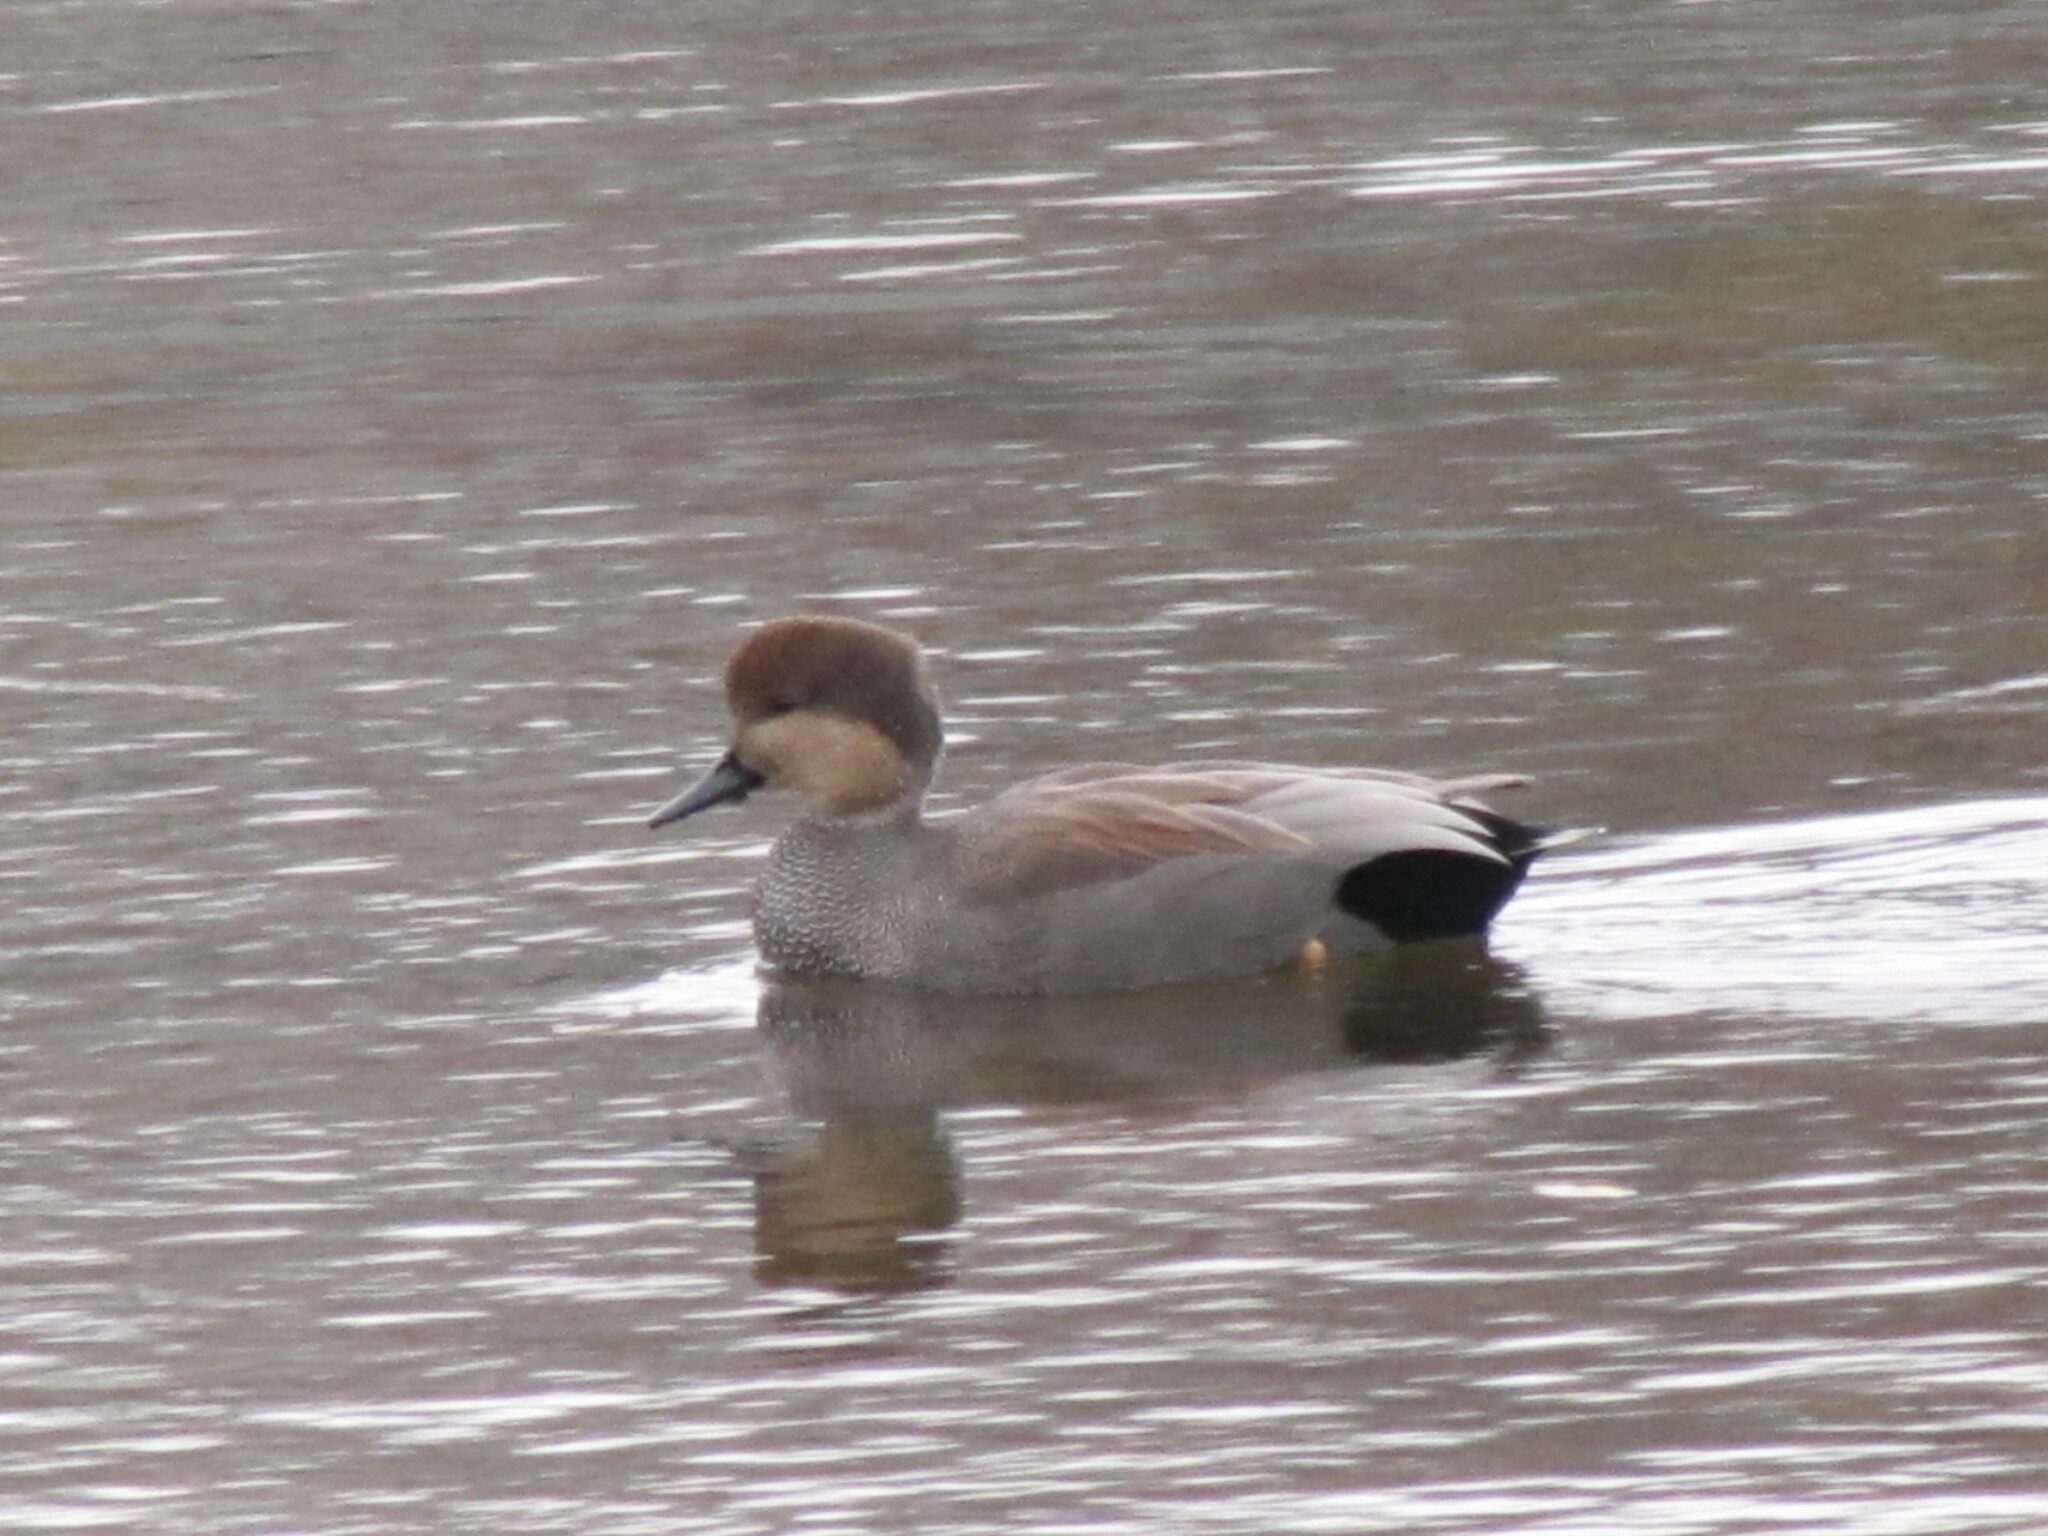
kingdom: Animalia
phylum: Chordata
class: Aves
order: Anseriformes
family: Anatidae
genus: Mareca
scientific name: Mareca strepera
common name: Gadwall
